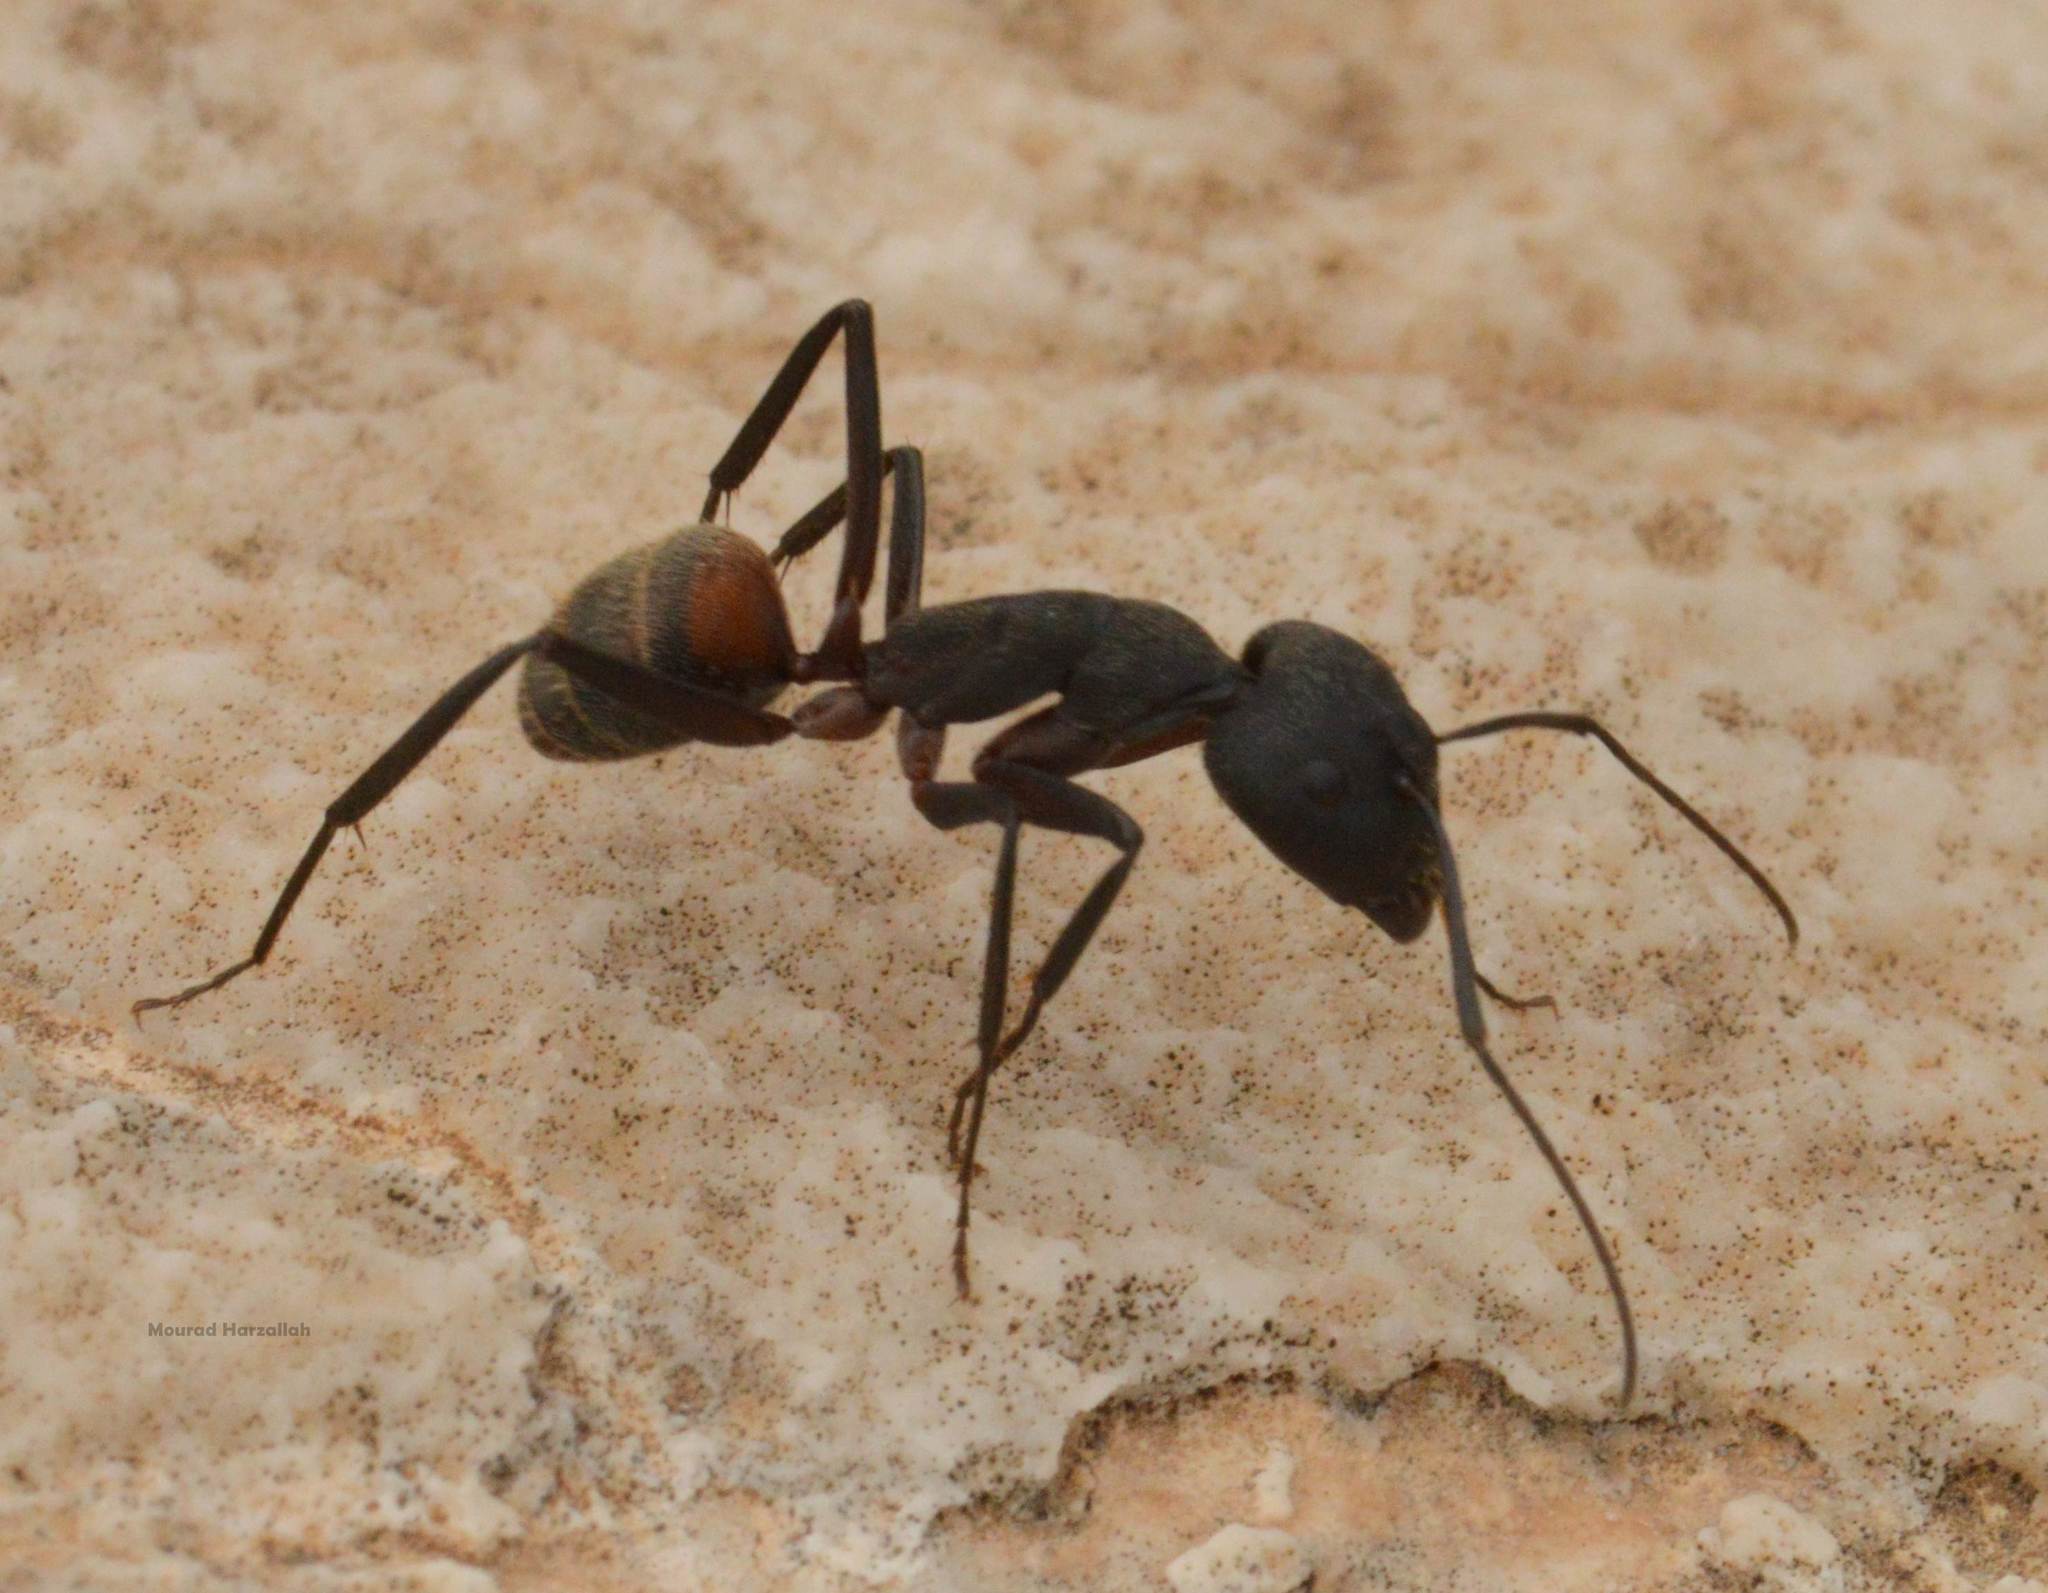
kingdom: Animalia
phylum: Arthropoda
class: Insecta
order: Hymenoptera
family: Formicidae
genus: Camponotus
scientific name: Camponotus cruentatus
